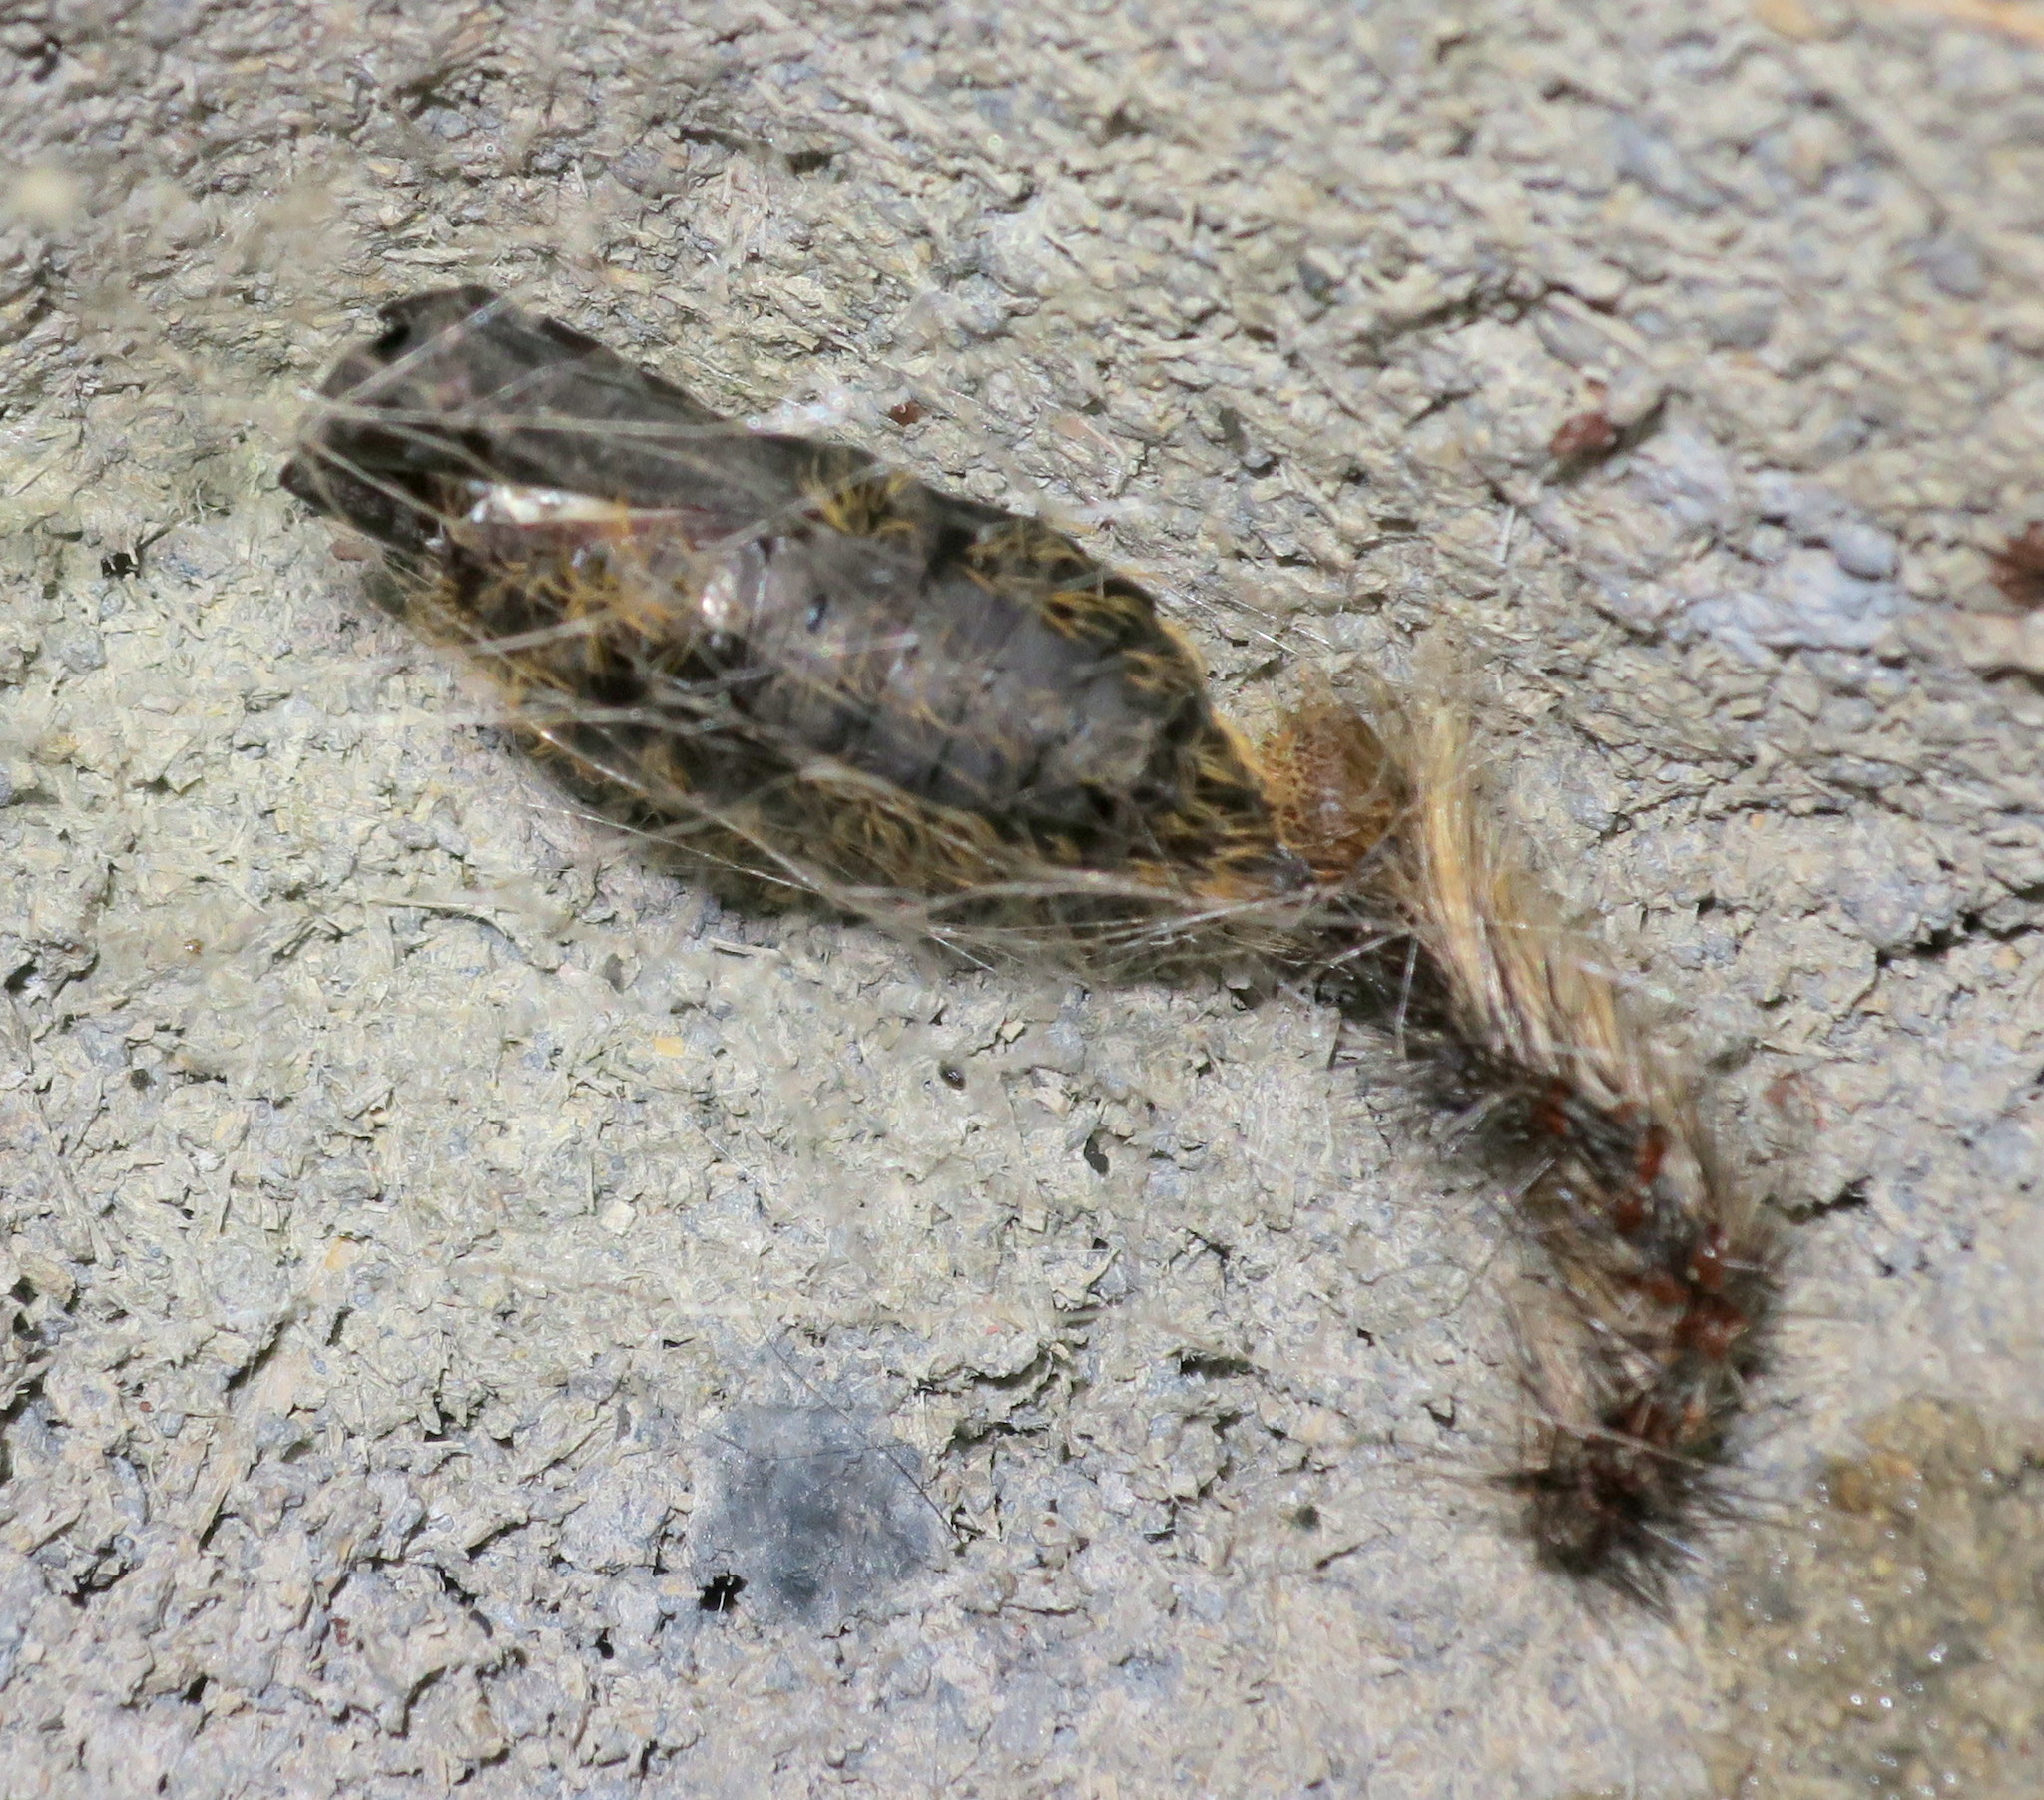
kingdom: Animalia
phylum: Arthropoda
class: Insecta
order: Lepidoptera
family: Erebidae
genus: Lymantria
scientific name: Lymantria dispar
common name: Gypsy moth
